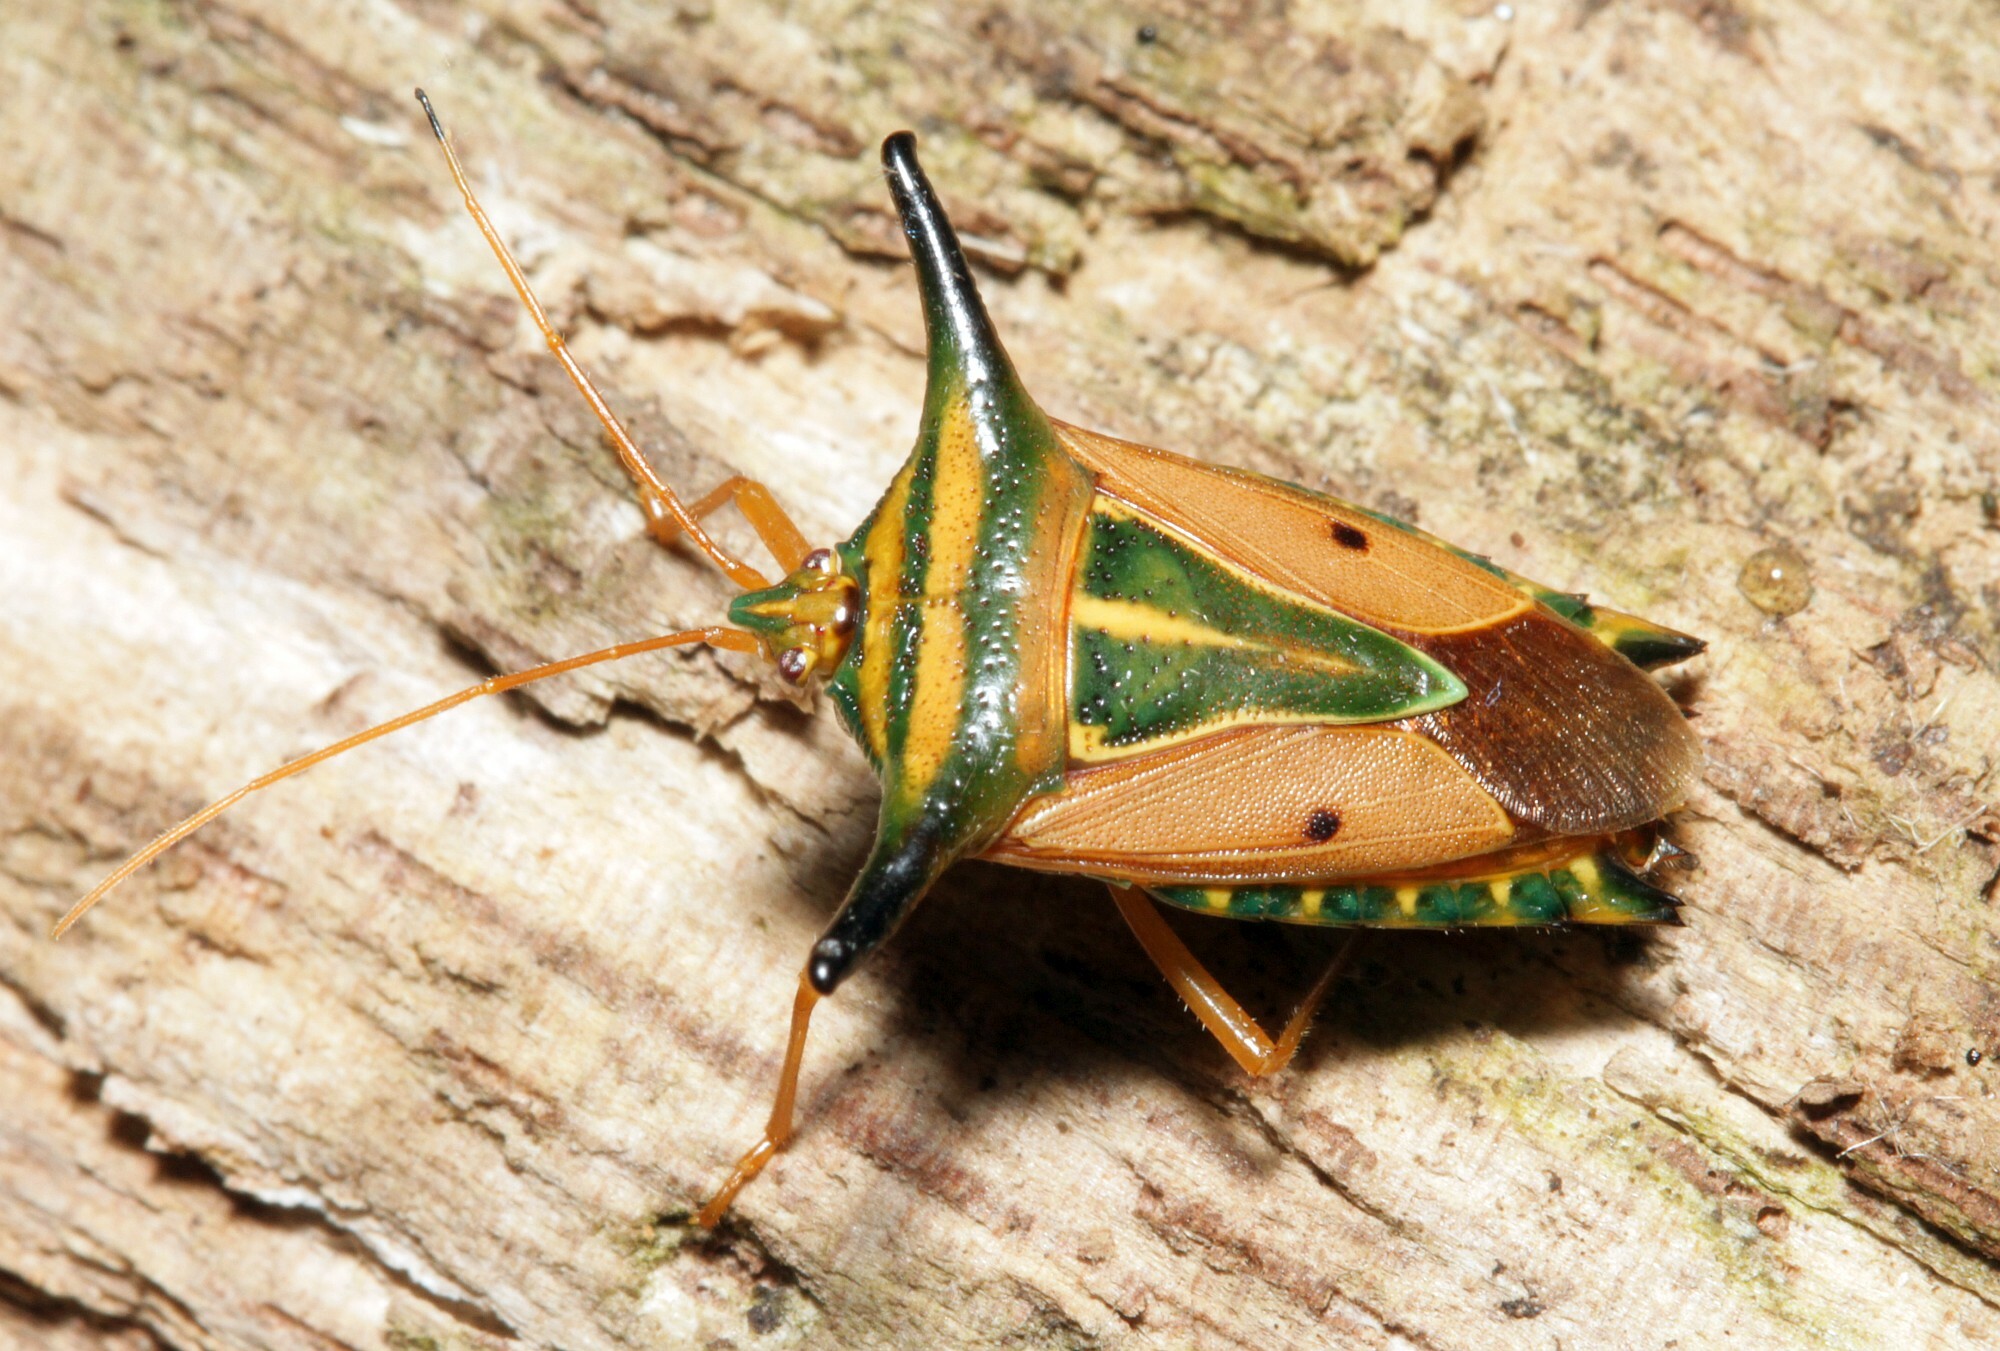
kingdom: Animalia
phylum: Arthropoda
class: Insecta
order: Hemiptera
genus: Olbia
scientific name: Olbia
